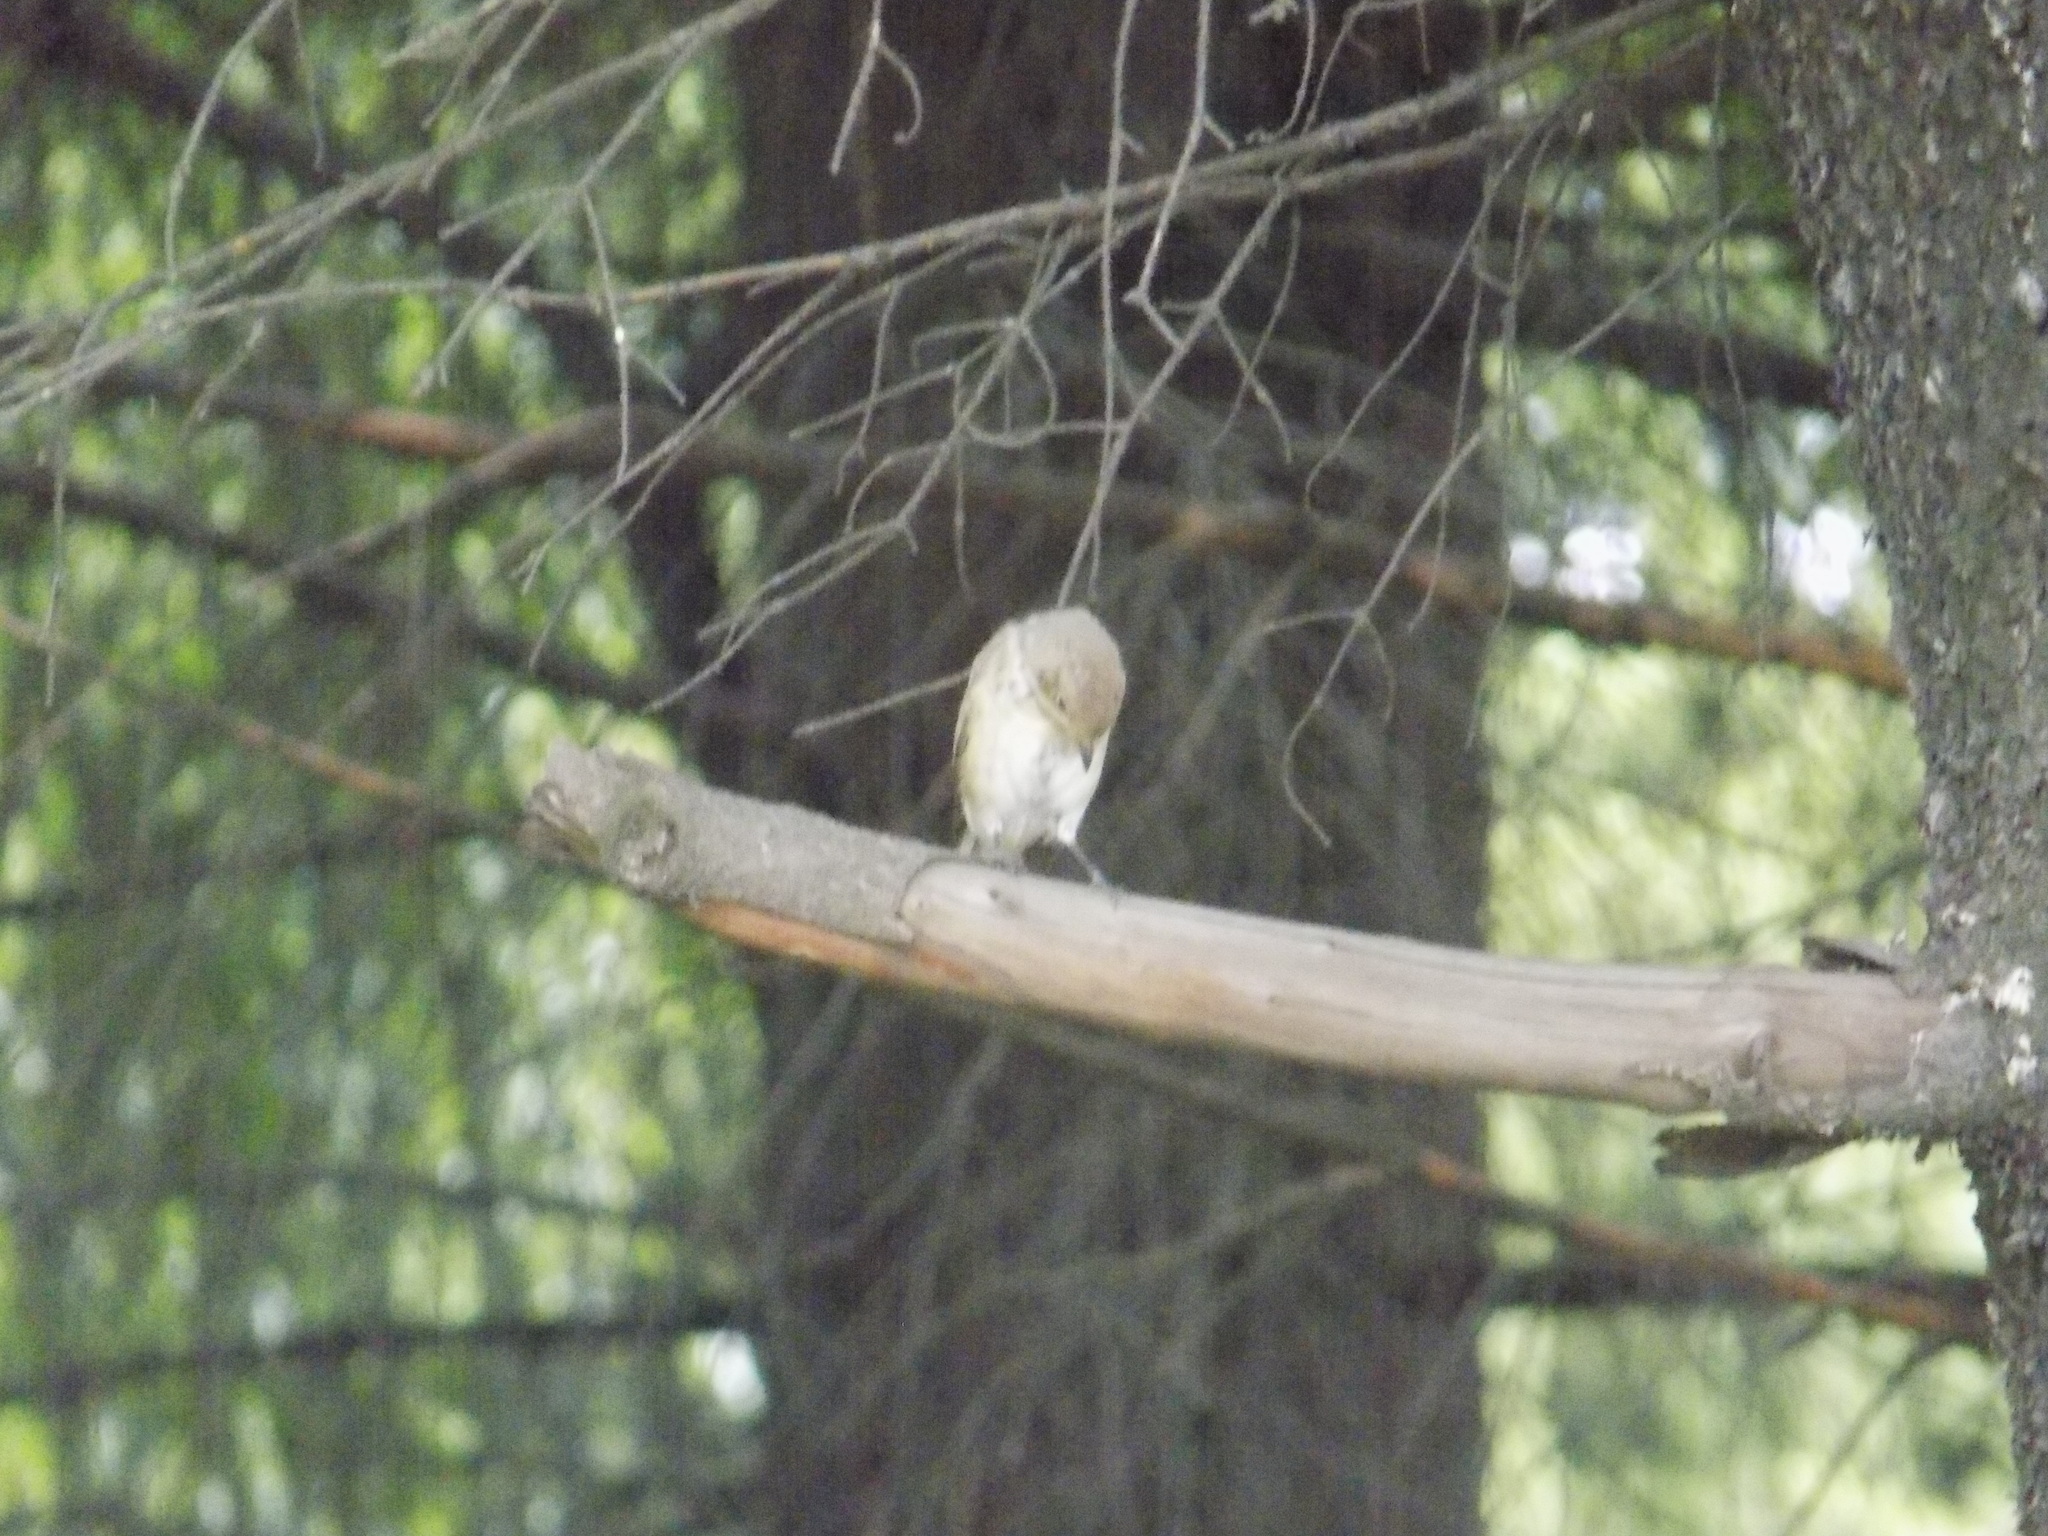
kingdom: Animalia
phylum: Chordata
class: Aves
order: Passeriformes
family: Muscicapidae
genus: Ficedula
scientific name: Ficedula hypoleuca
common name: European pied flycatcher
